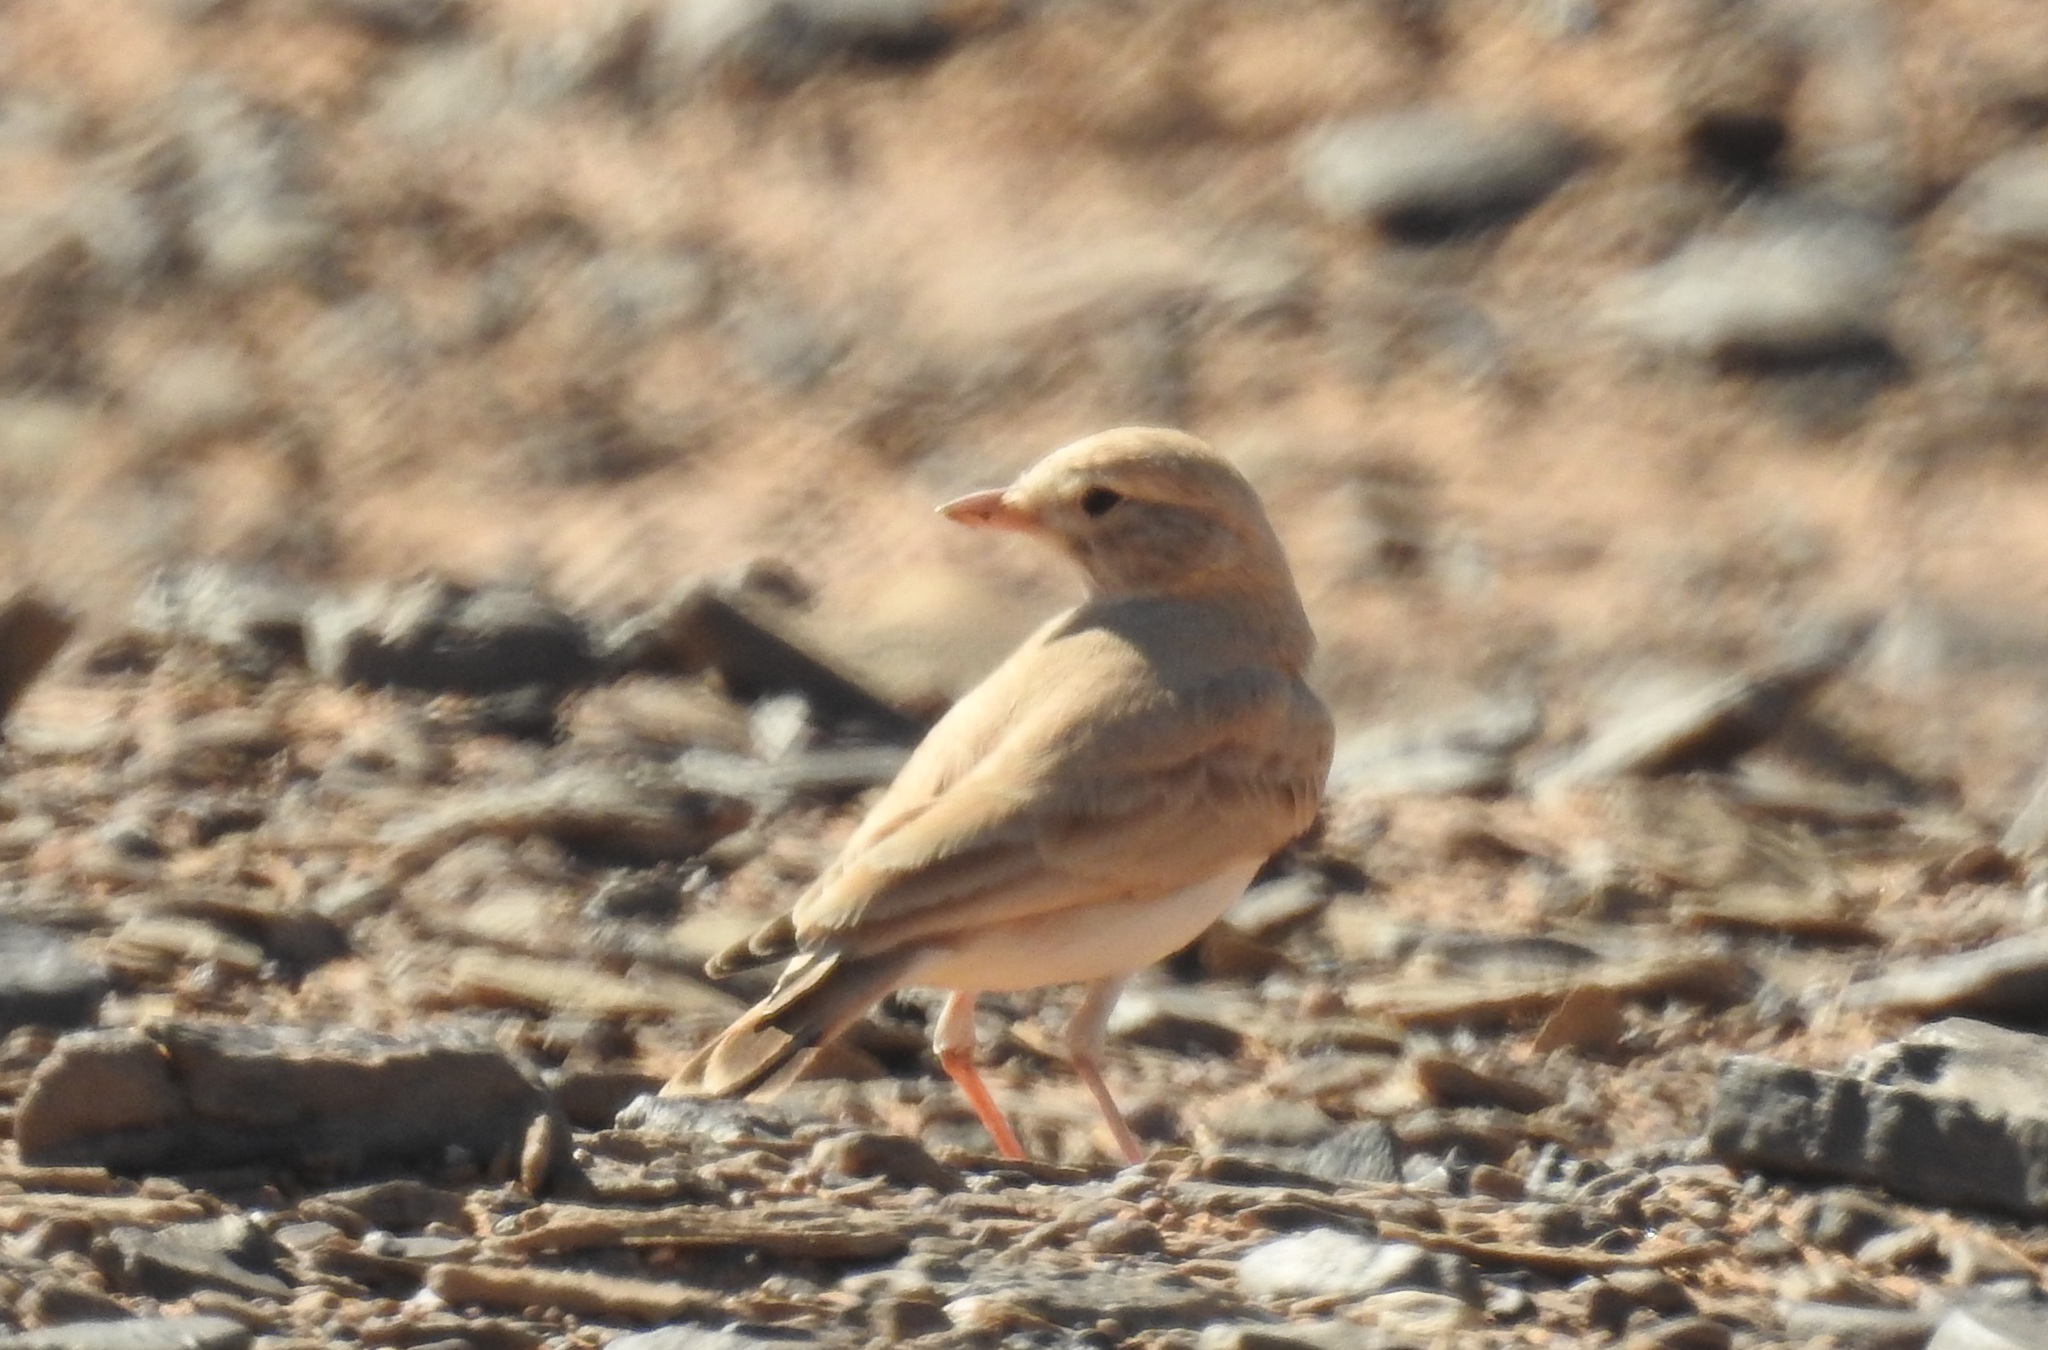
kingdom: Animalia
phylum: Chordata
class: Aves
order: Passeriformes
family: Alaudidae
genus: Ammomanes
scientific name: Ammomanes cinctura
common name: Bar-tailed lark
